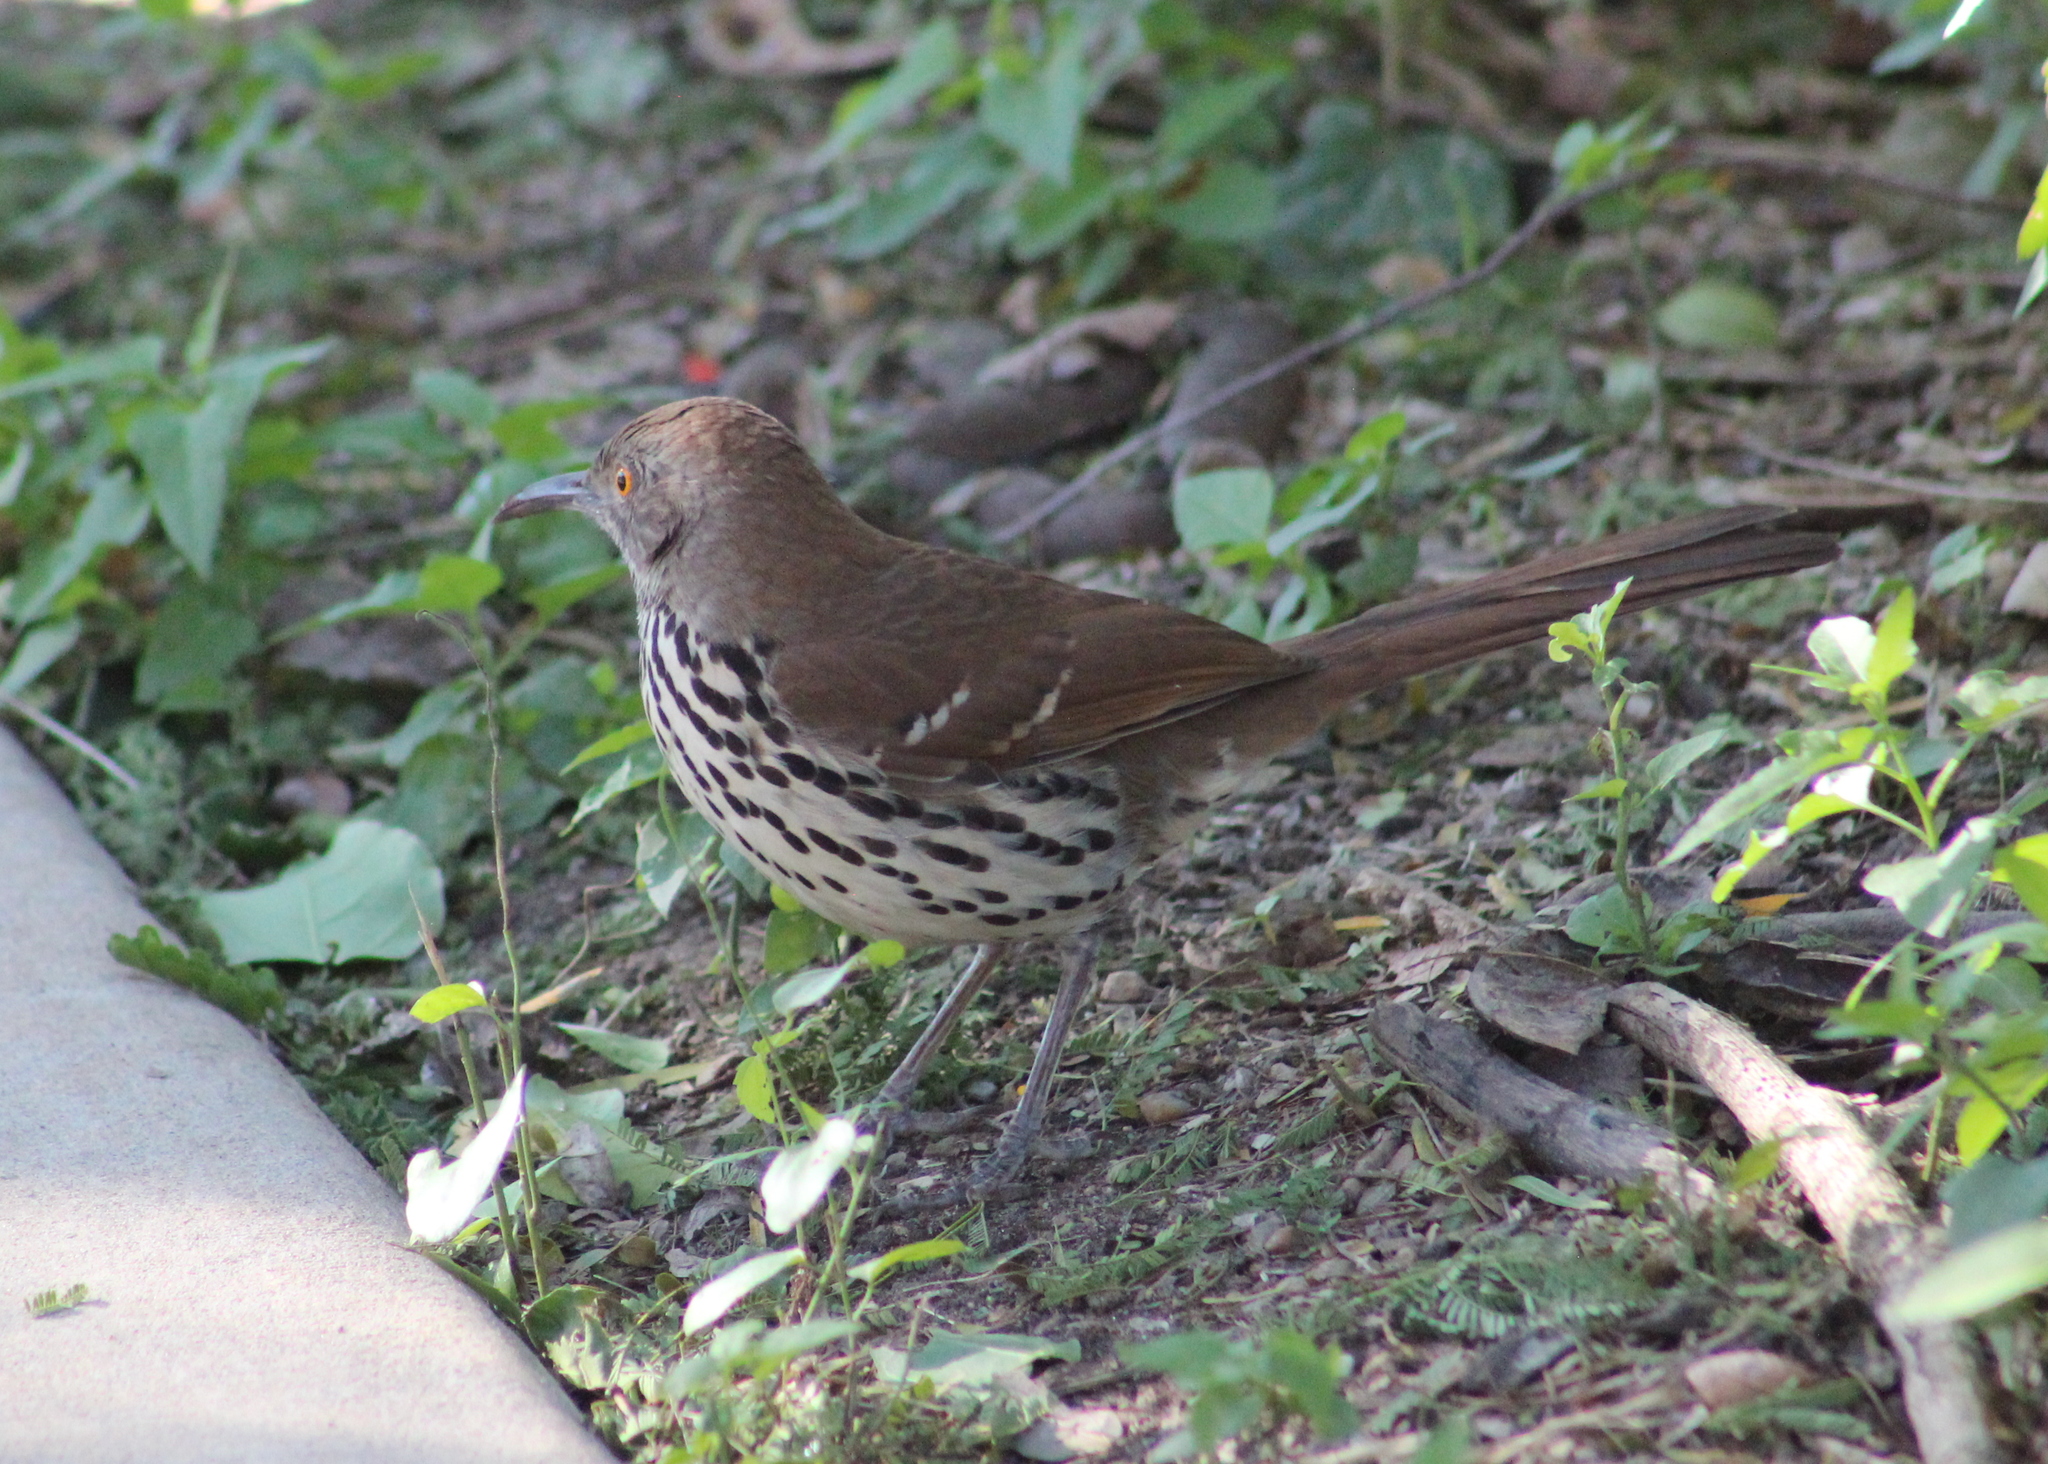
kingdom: Animalia
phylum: Chordata
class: Aves
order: Passeriformes
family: Mimidae
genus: Toxostoma
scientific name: Toxostoma longirostre
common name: Long-billed thrasher
